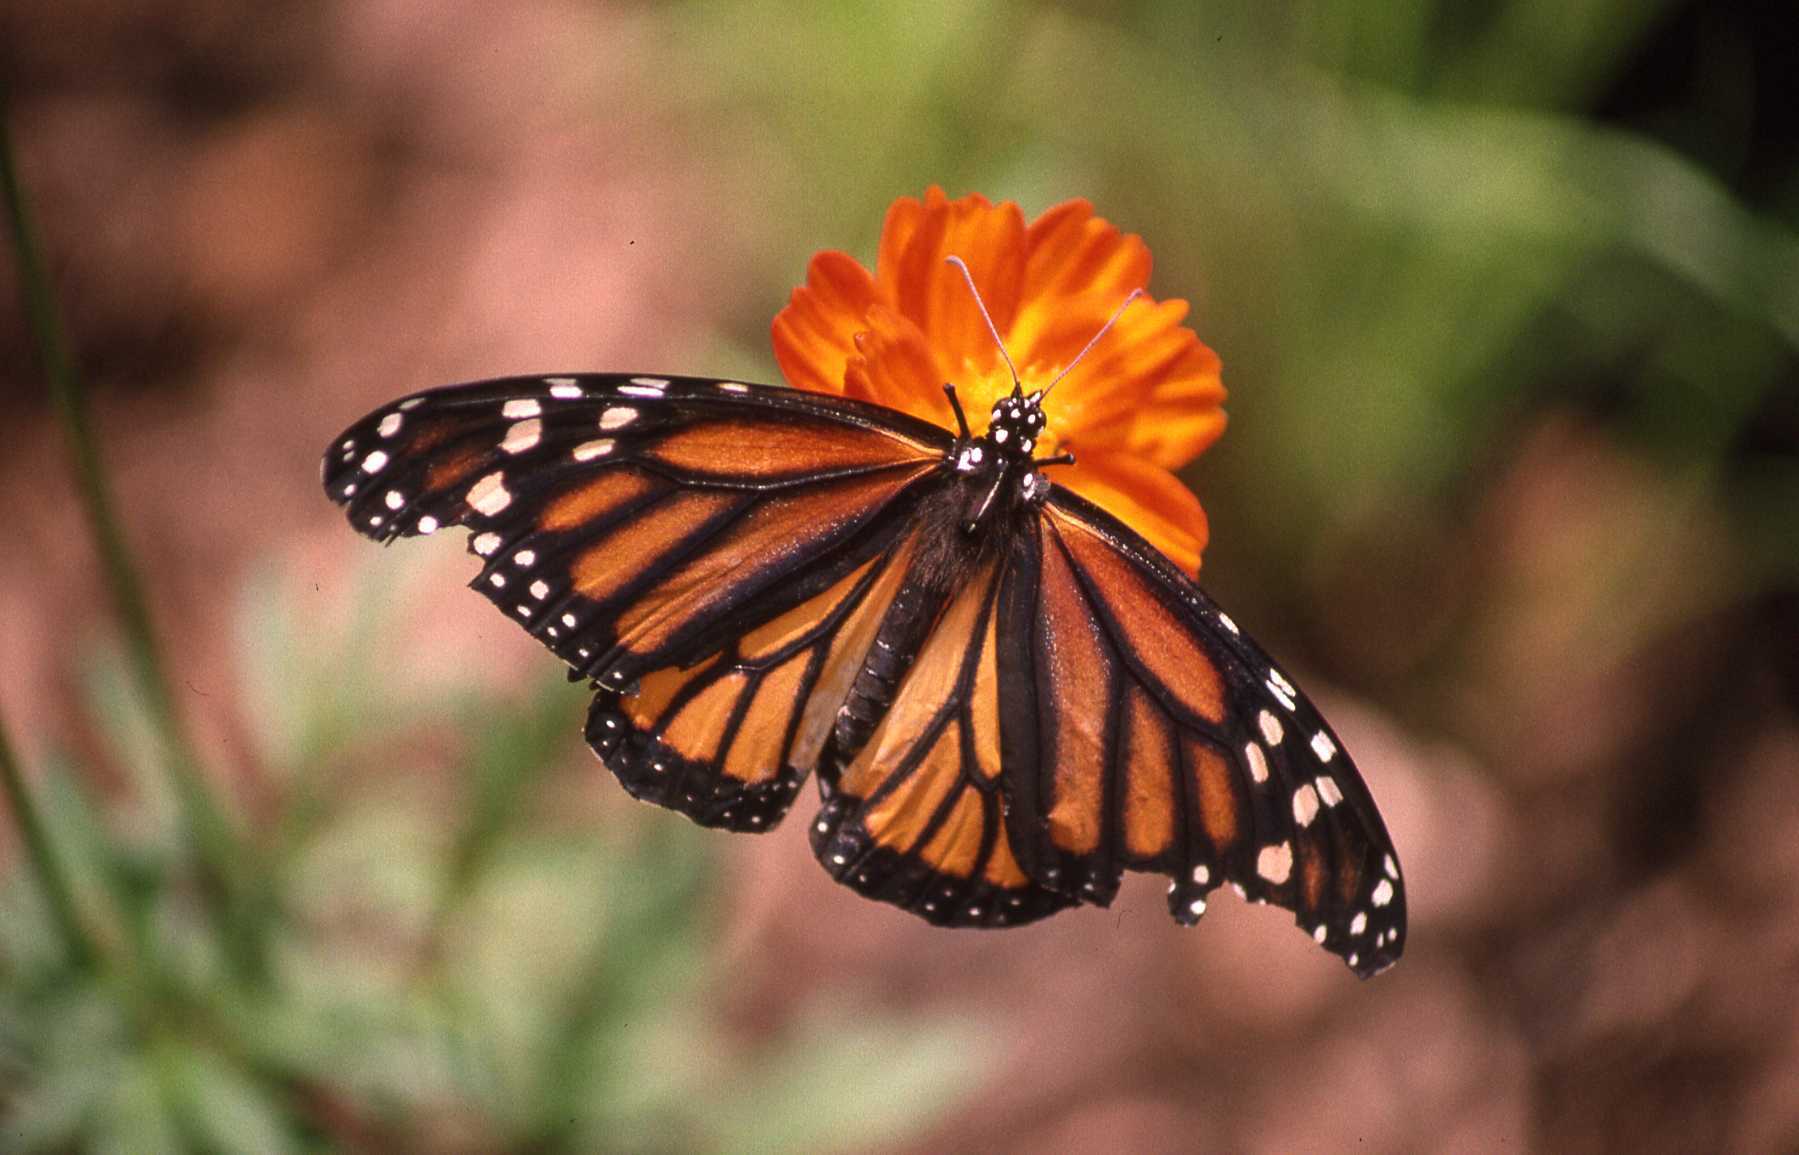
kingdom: Animalia
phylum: Arthropoda
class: Insecta
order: Lepidoptera
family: Nymphalidae
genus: Danaus
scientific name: Danaus plexippus
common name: Monarch
